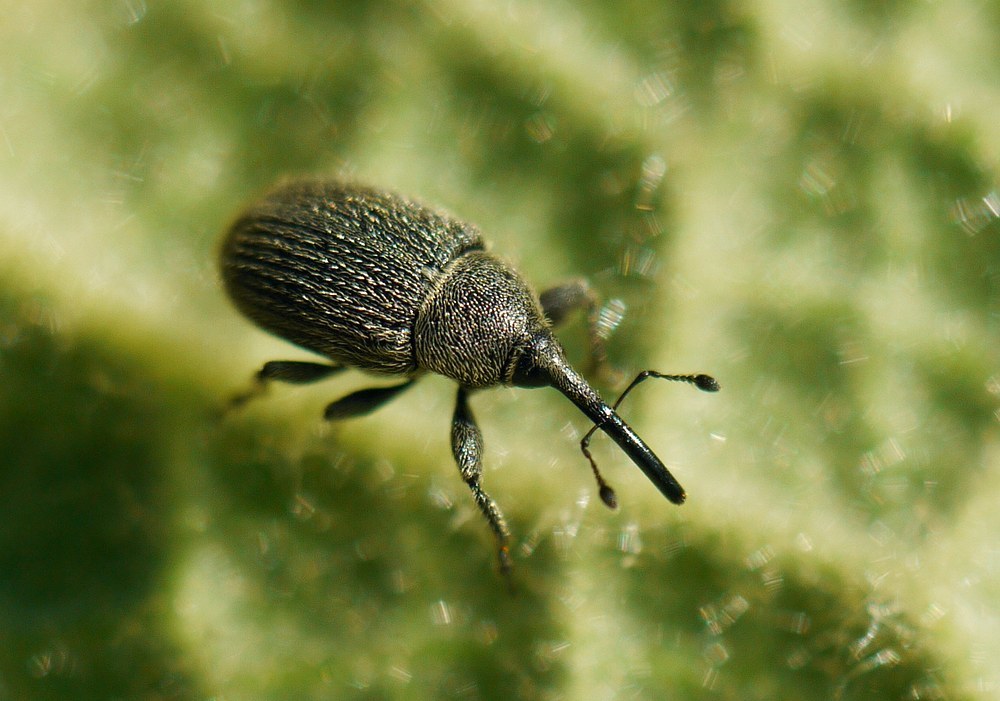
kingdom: Animalia
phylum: Arthropoda
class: Insecta
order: Coleoptera
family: Curculionidae
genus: Rhinusa
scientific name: Rhinusa asellus
